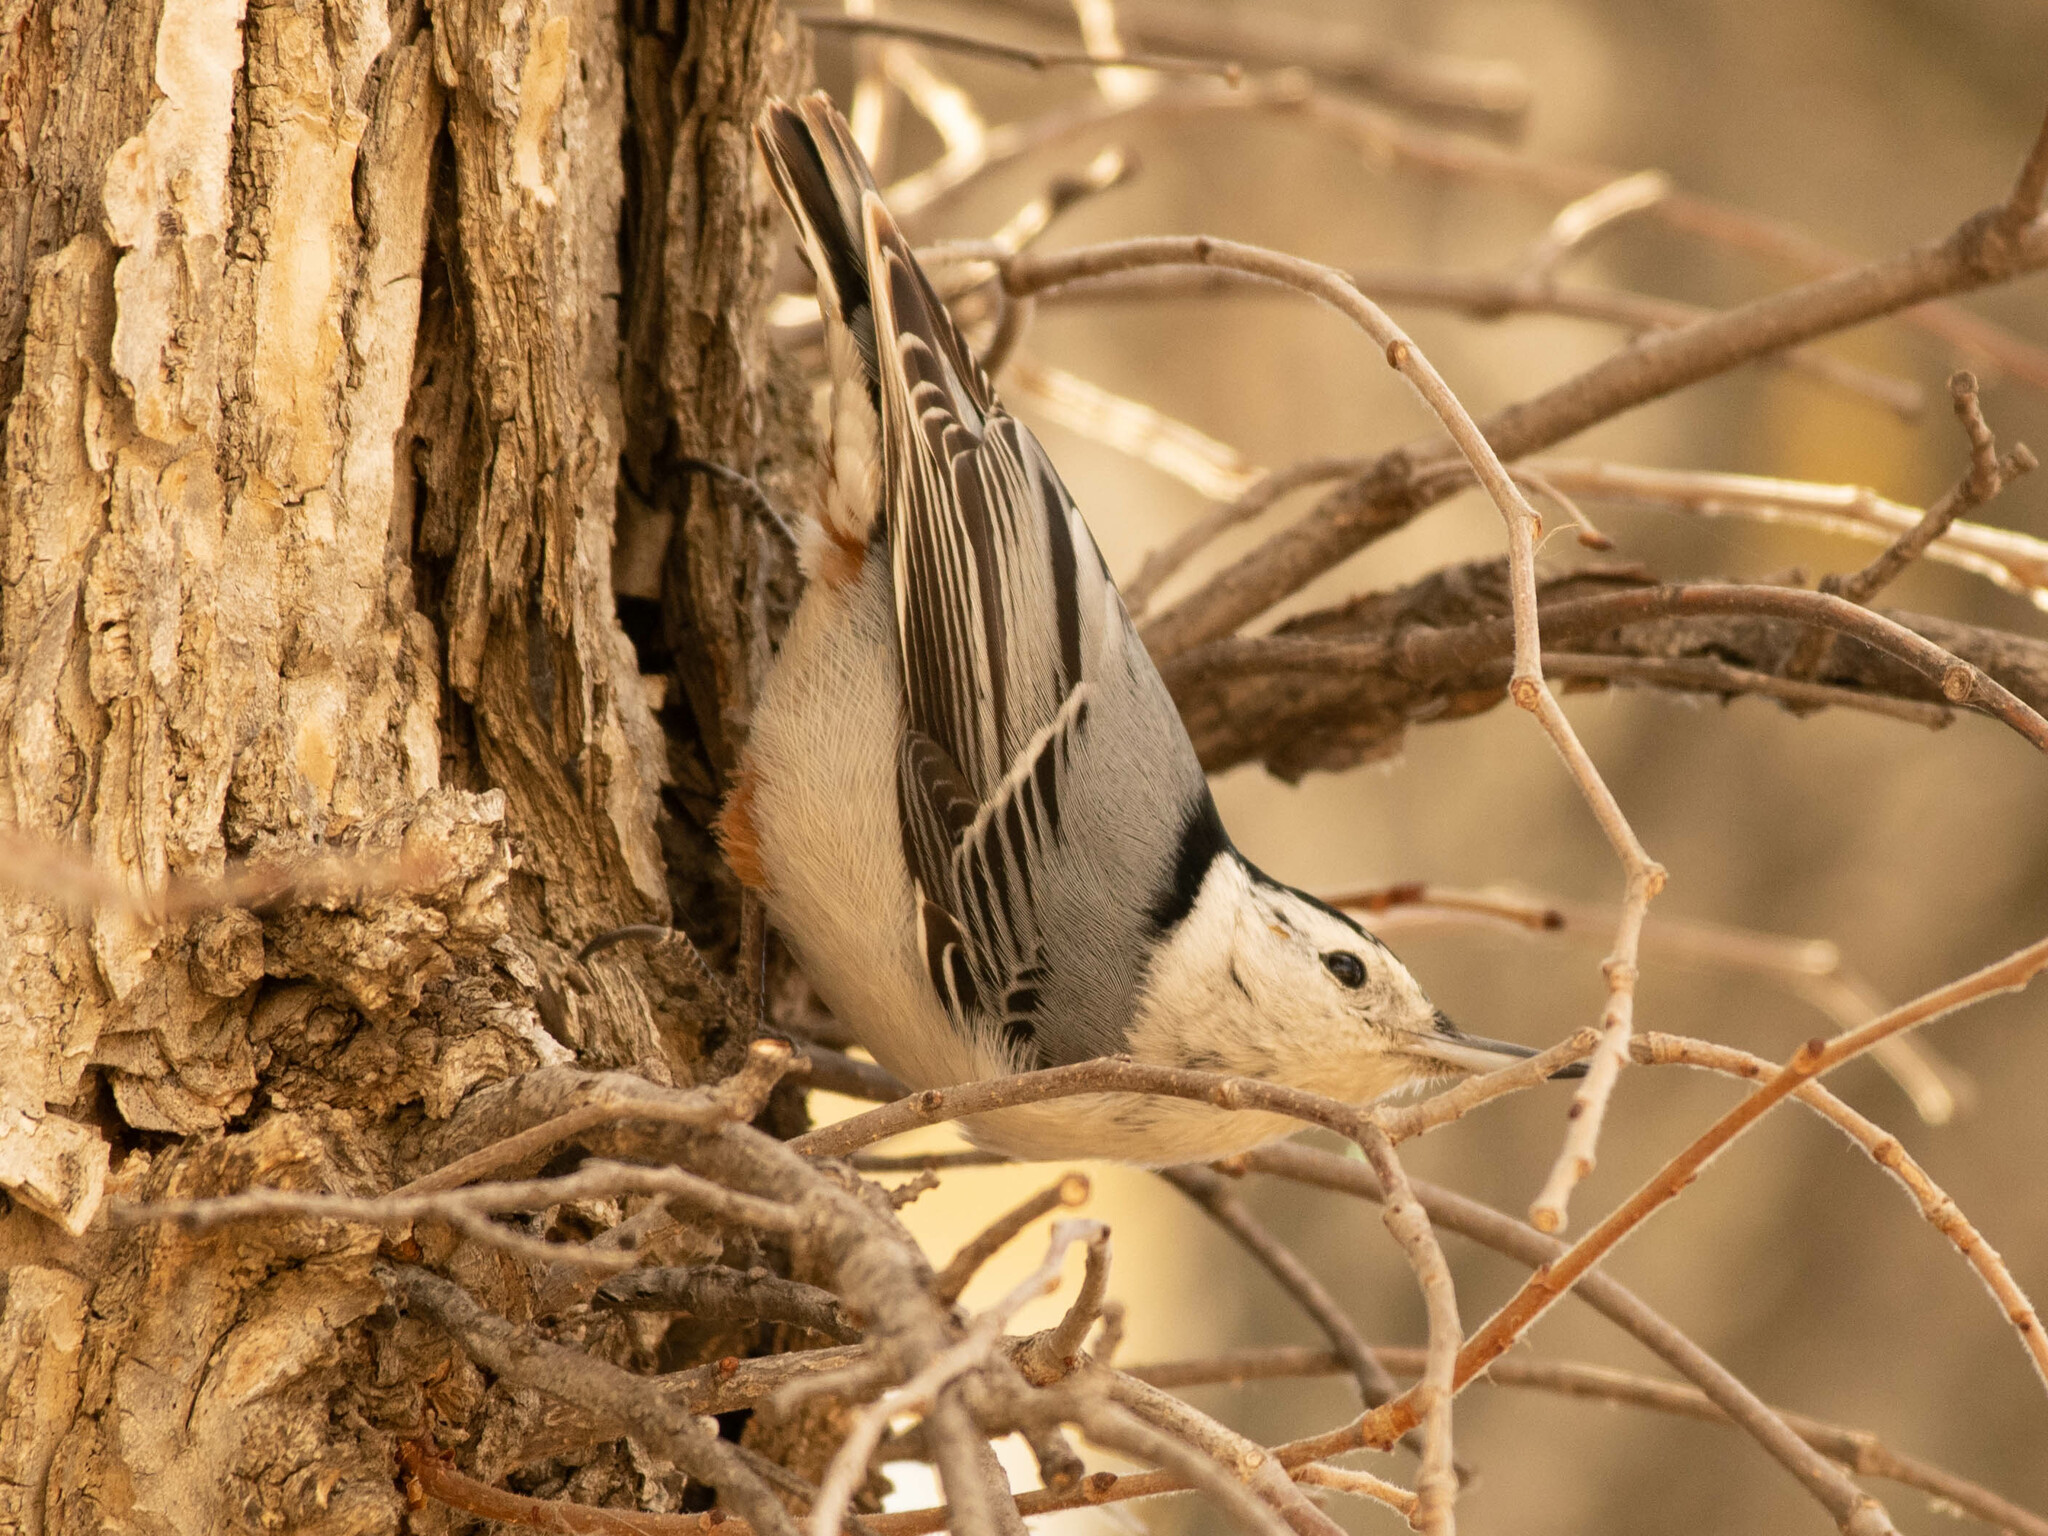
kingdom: Animalia
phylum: Chordata
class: Aves
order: Passeriformes
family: Sittidae
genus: Sitta
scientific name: Sitta carolinensis
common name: White-breasted nuthatch
